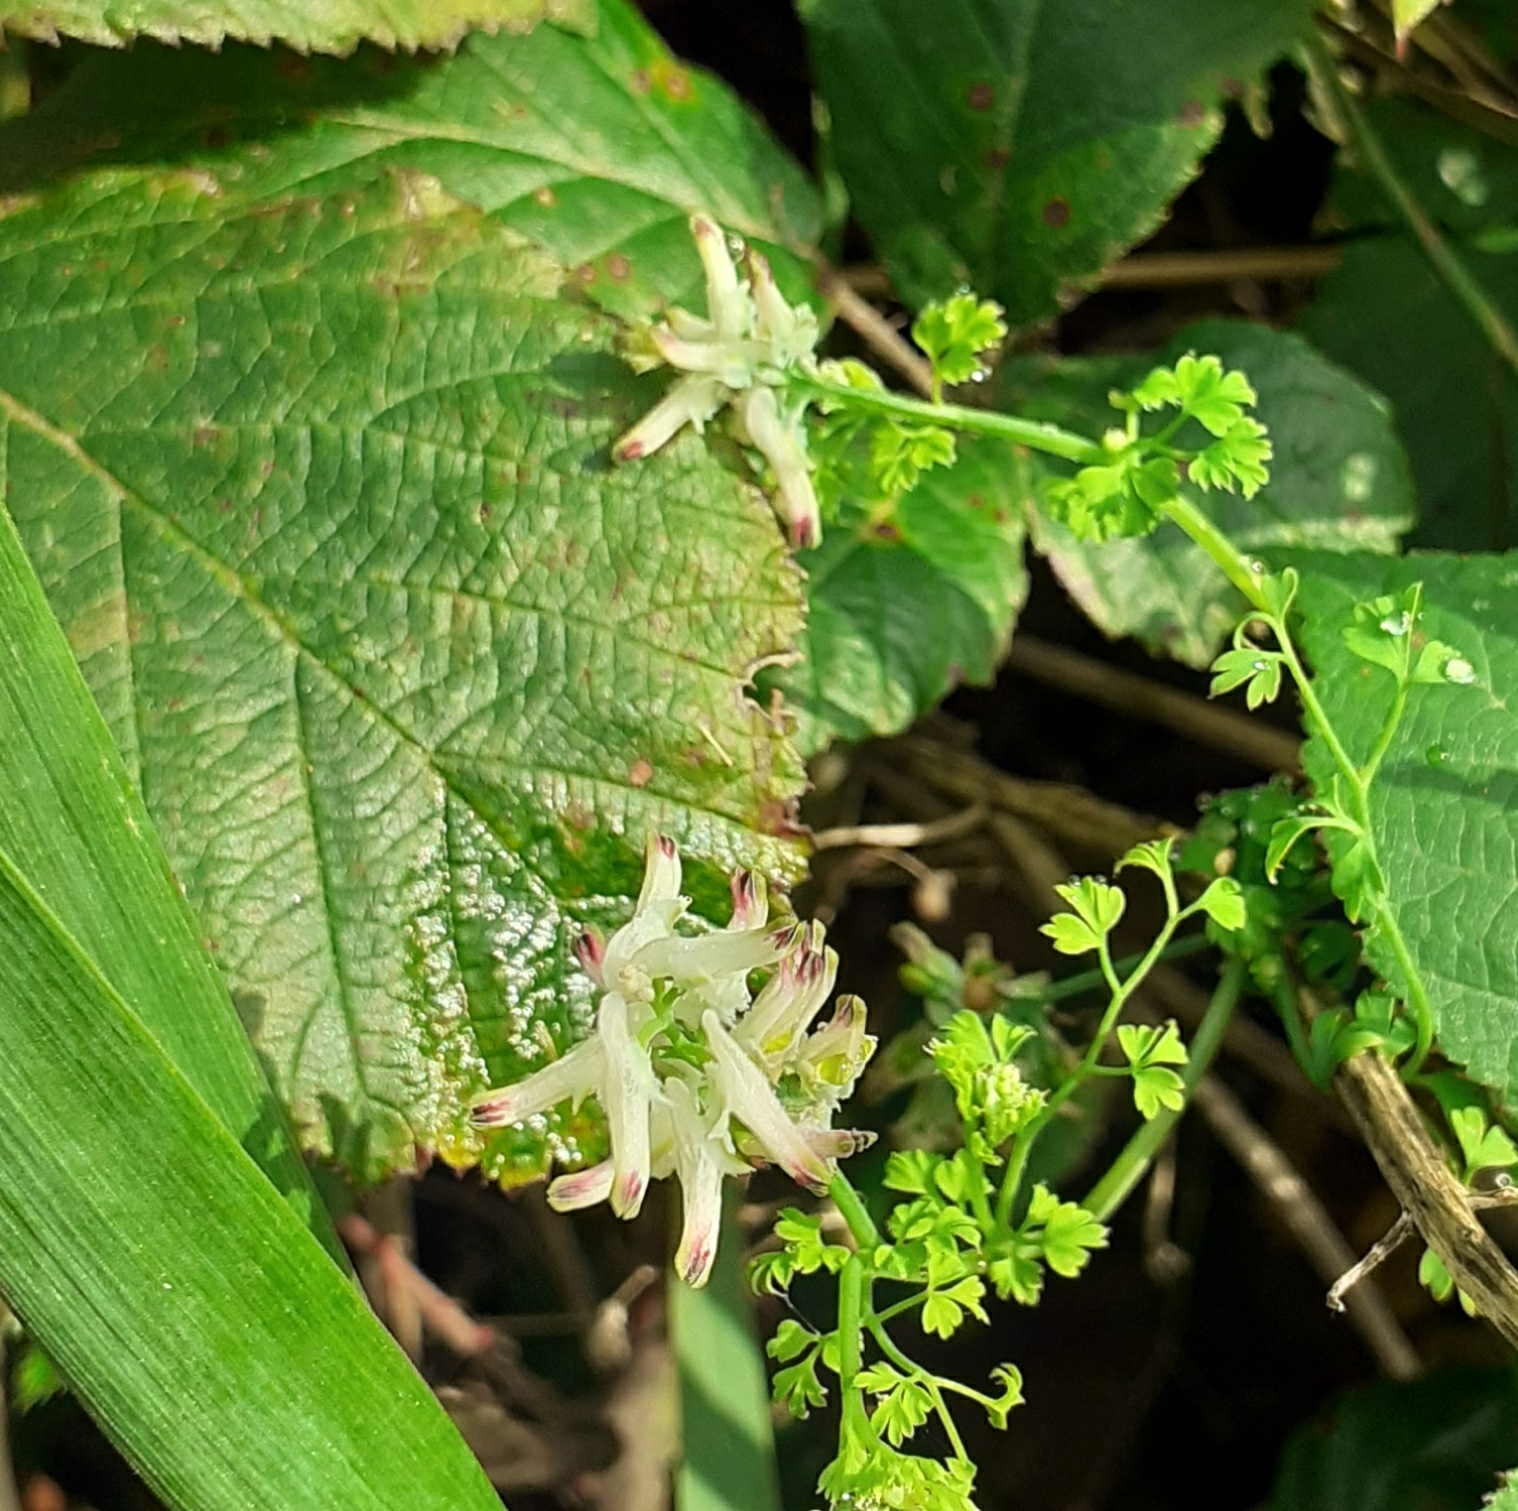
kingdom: Plantae
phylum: Tracheophyta
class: Magnoliopsida
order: Ranunculales
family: Papaveraceae
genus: Fumaria
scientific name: Fumaria capreolata
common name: White ramping-fumitory
